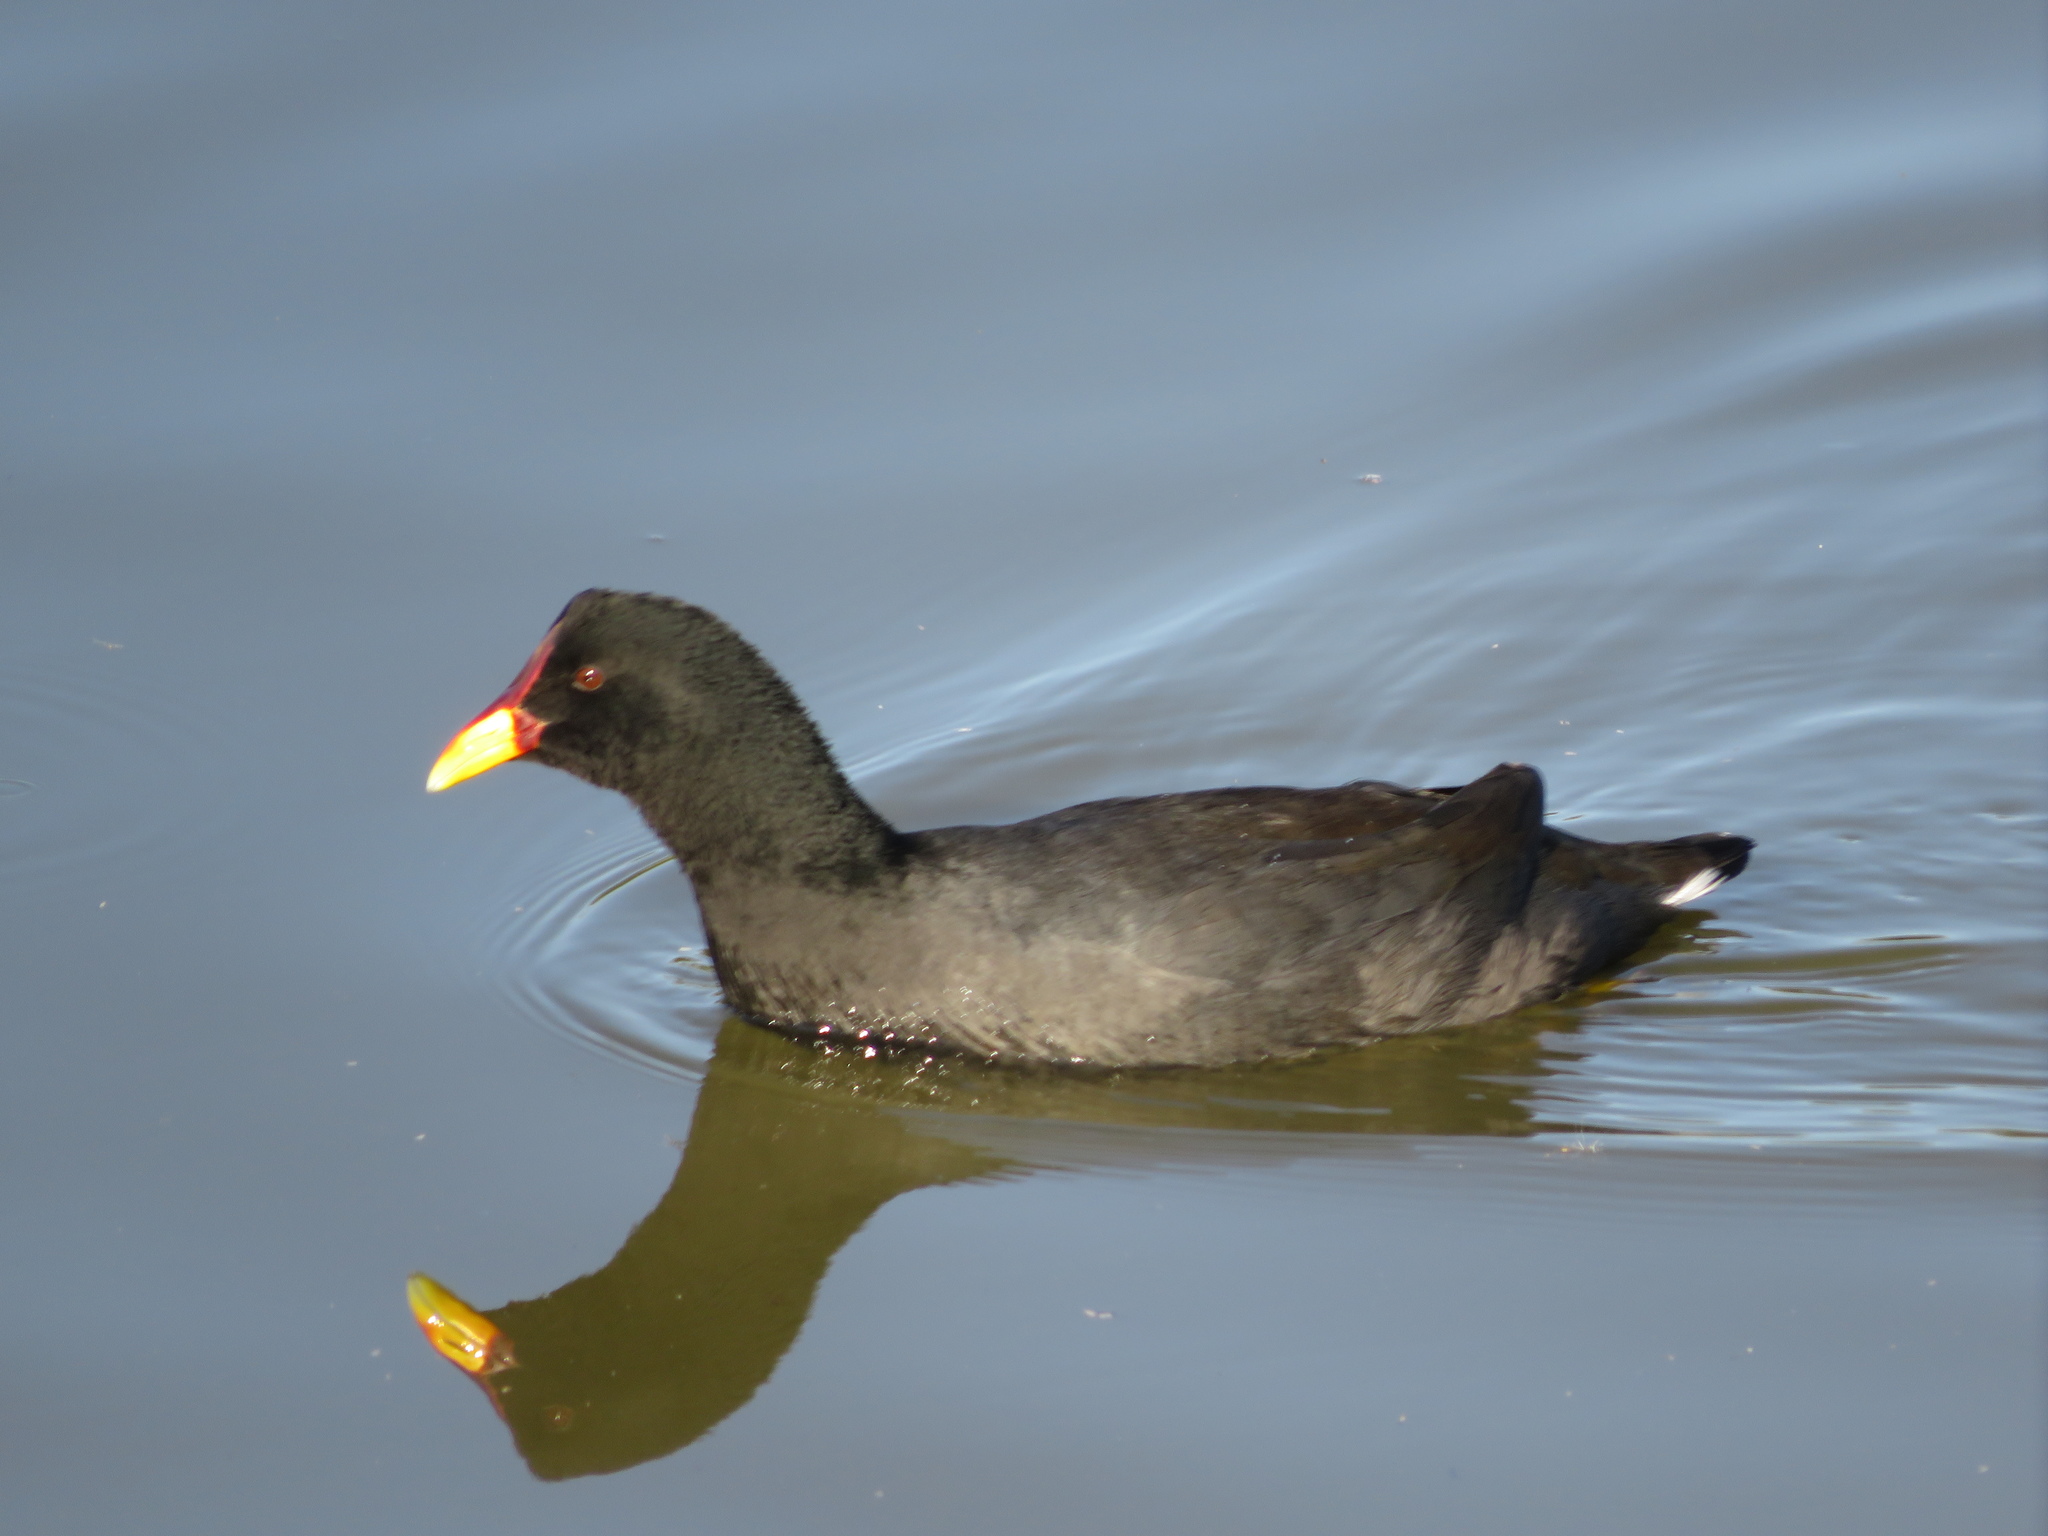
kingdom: Animalia
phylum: Chordata
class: Aves
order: Gruiformes
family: Rallidae
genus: Fulica
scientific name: Fulica rufifrons
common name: Red-fronted coot
